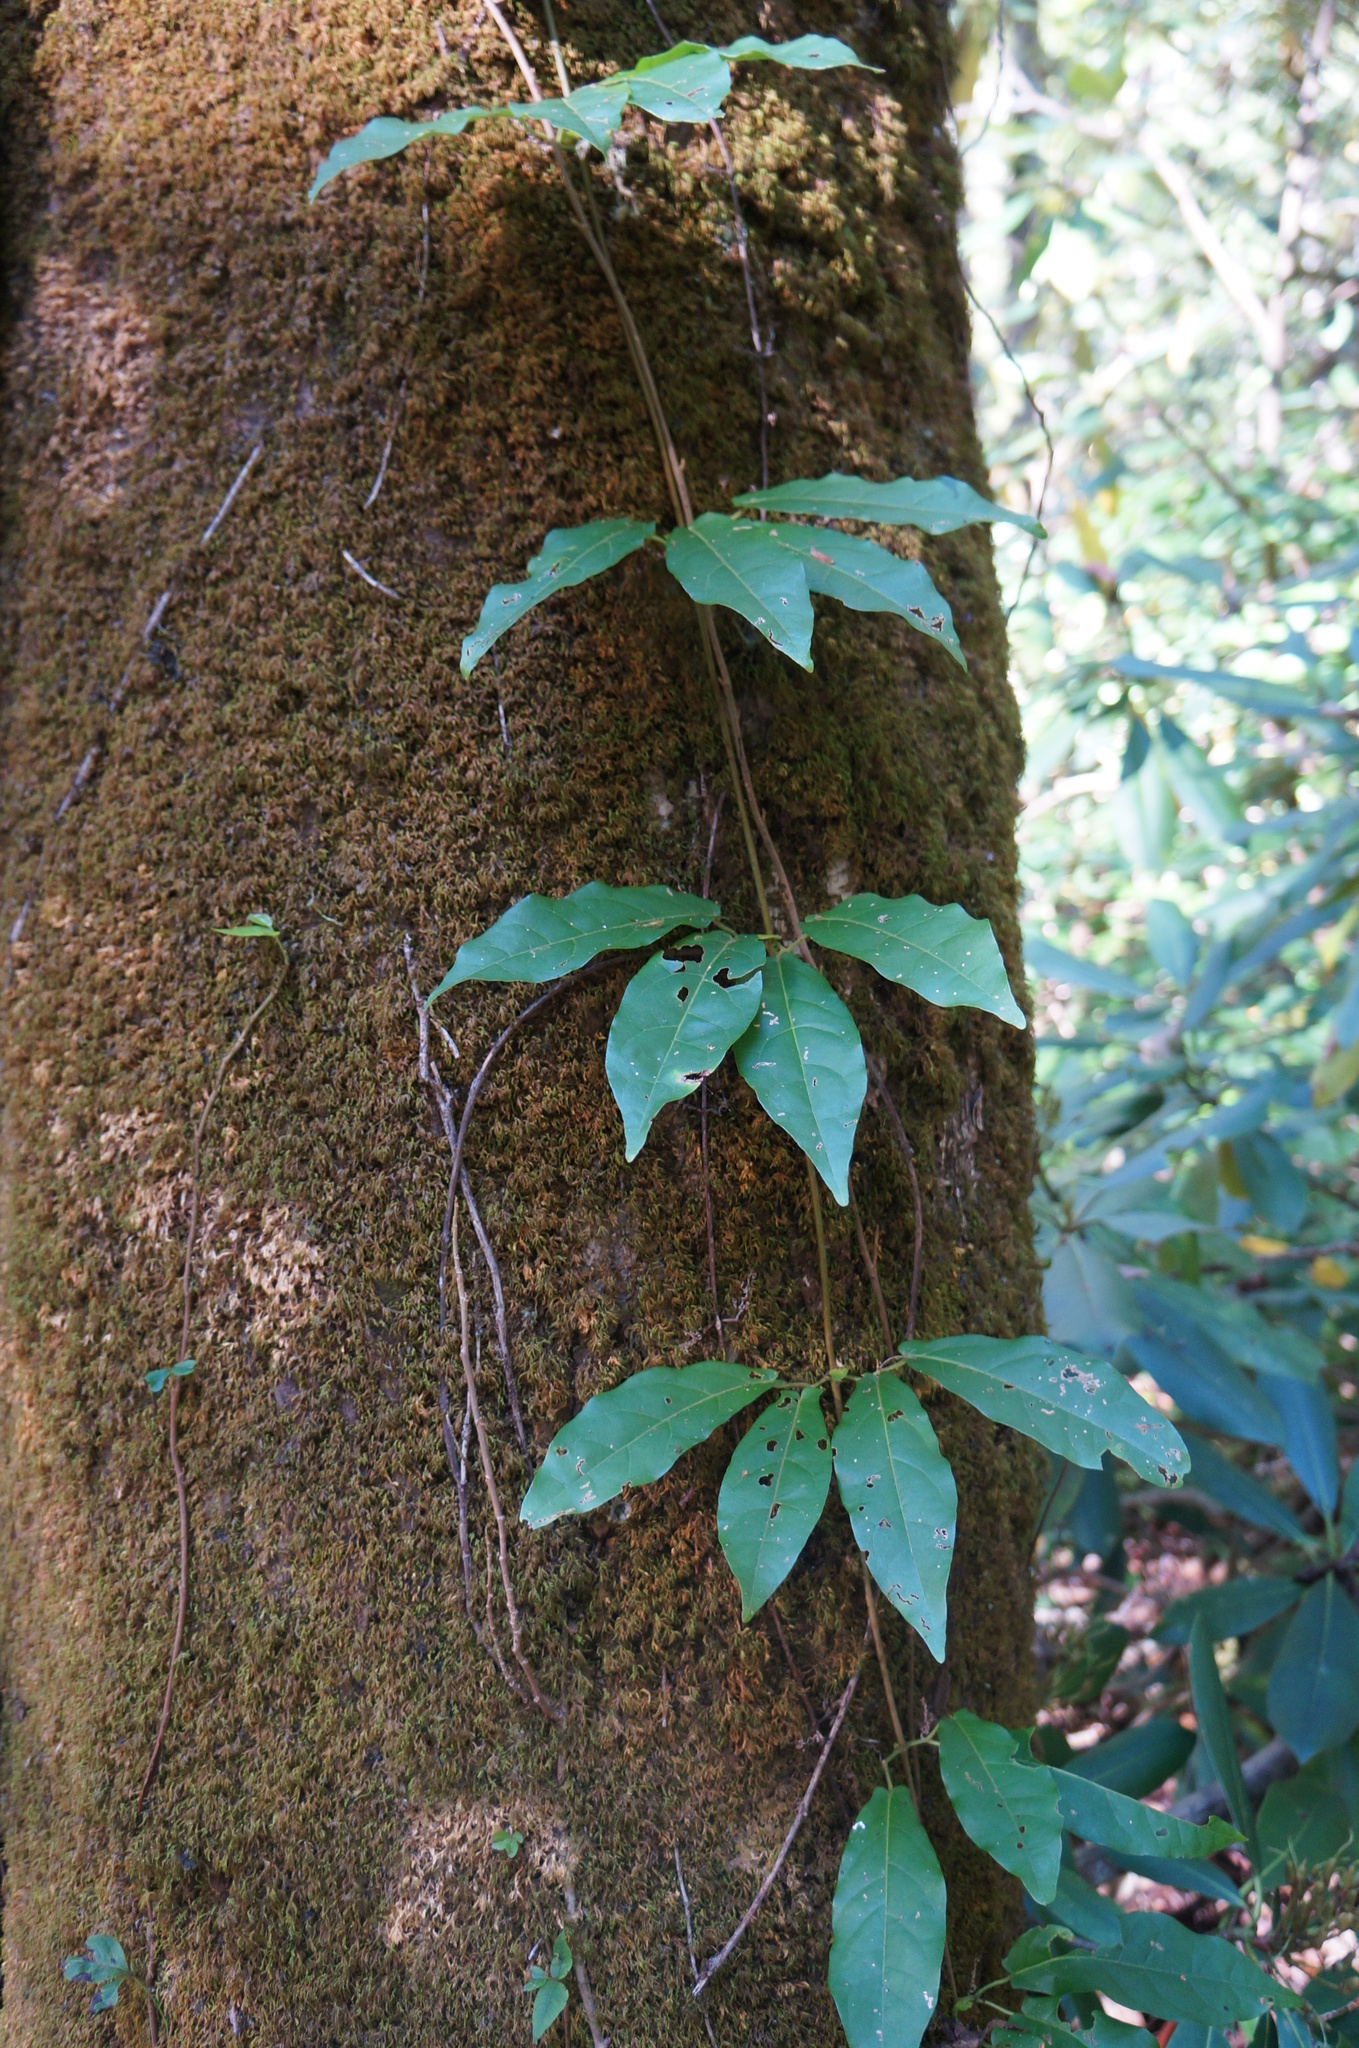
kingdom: Plantae
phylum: Tracheophyta
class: Magnoliopsida
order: Lamiales
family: Bignoniaceae
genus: Bignonia
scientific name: Bignonia capreolata
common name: Crossvine
